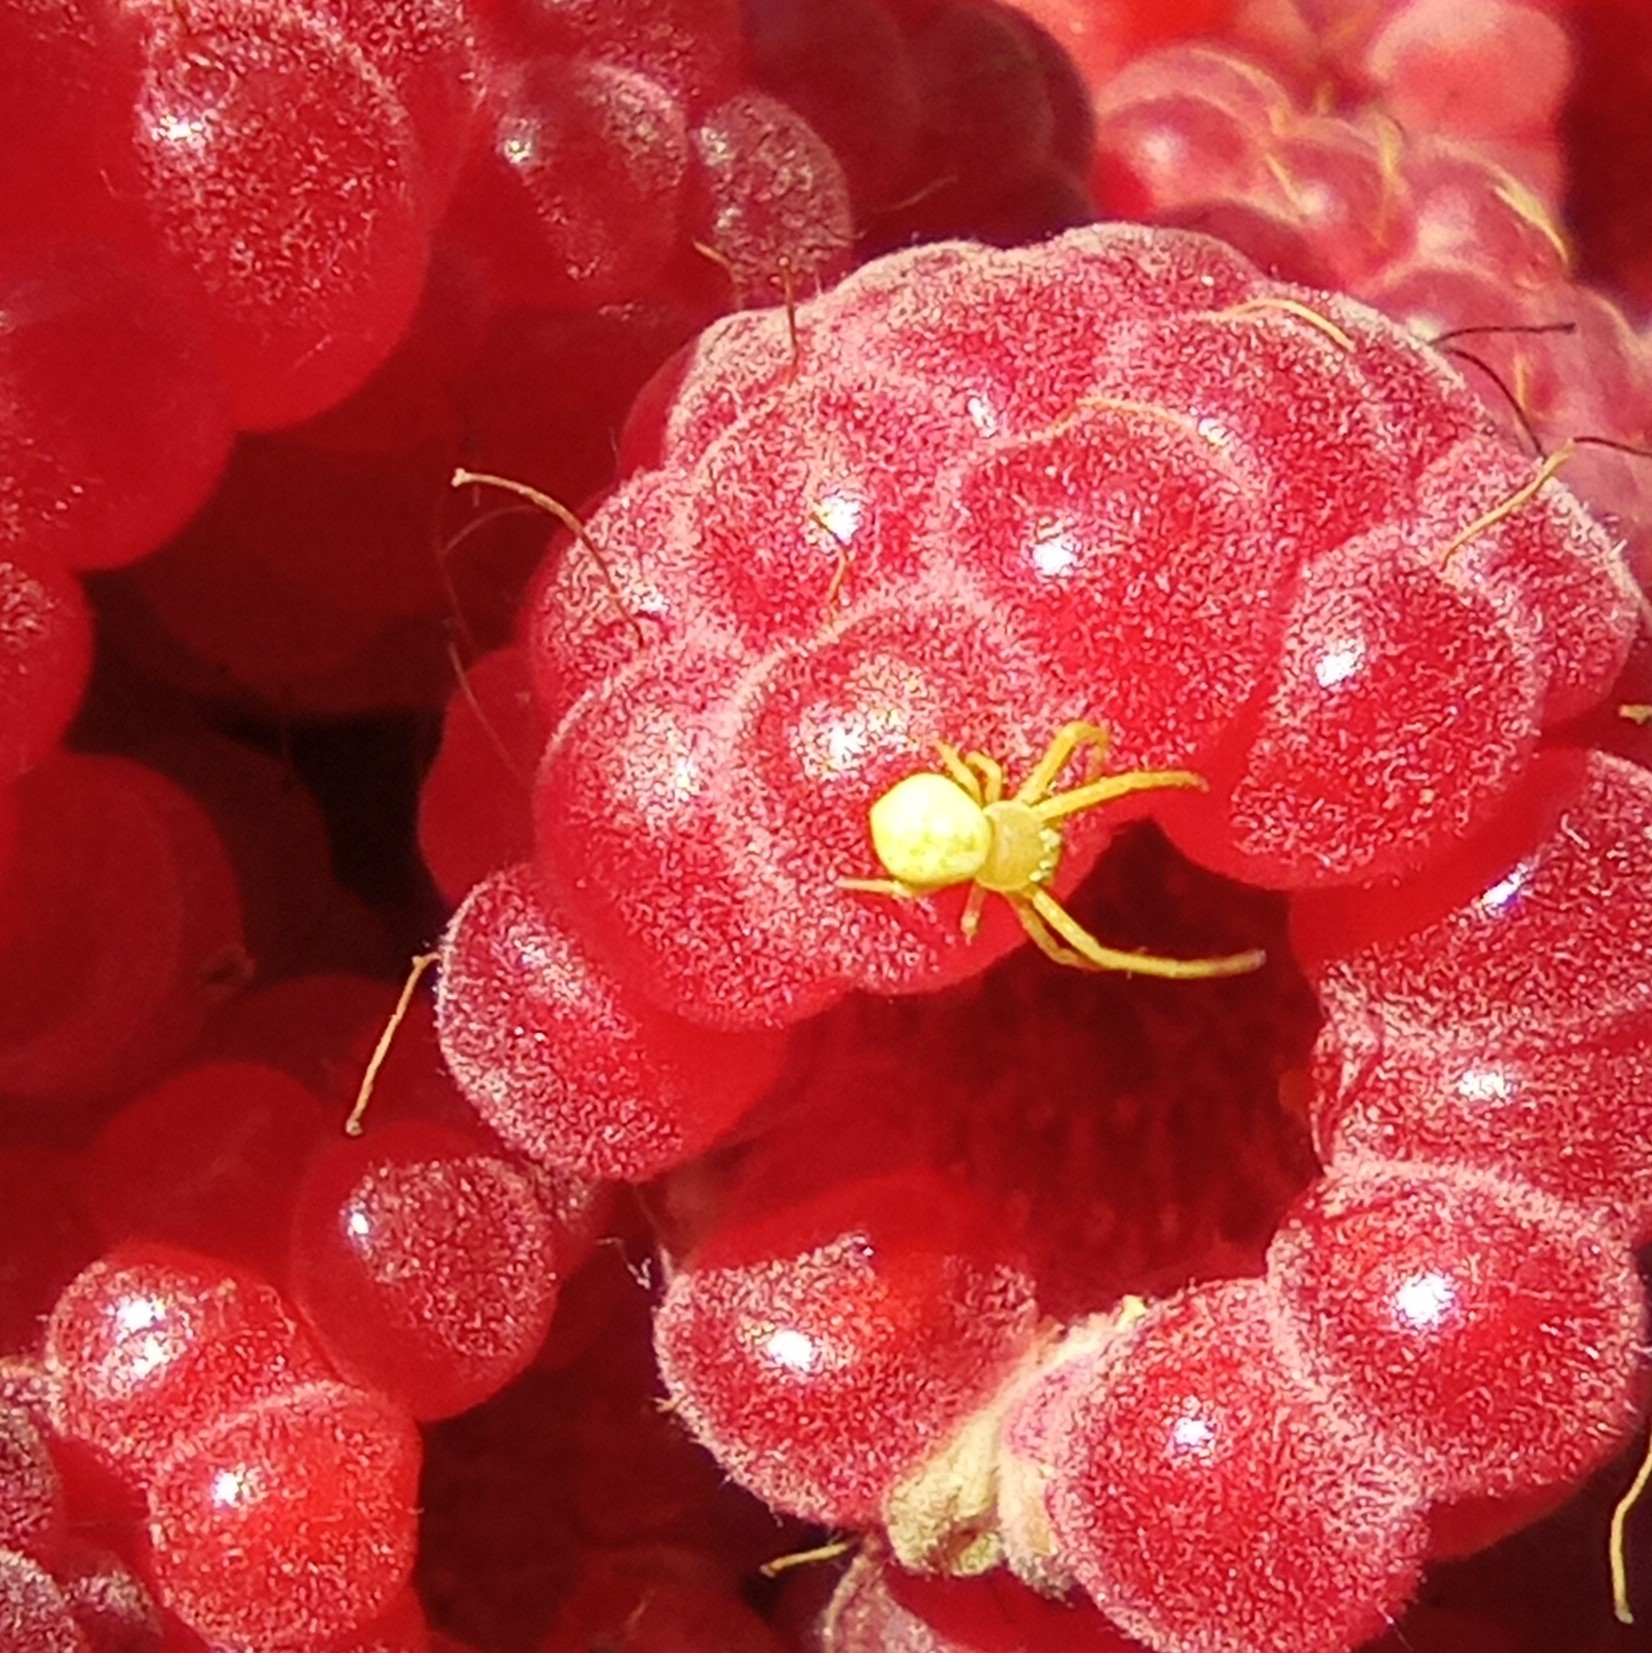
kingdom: Animalia
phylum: Arthropoda
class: Arachnida
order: Araneae
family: Thomisidae
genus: Ebrechtella
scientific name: Ebrechtella tricuspidata
